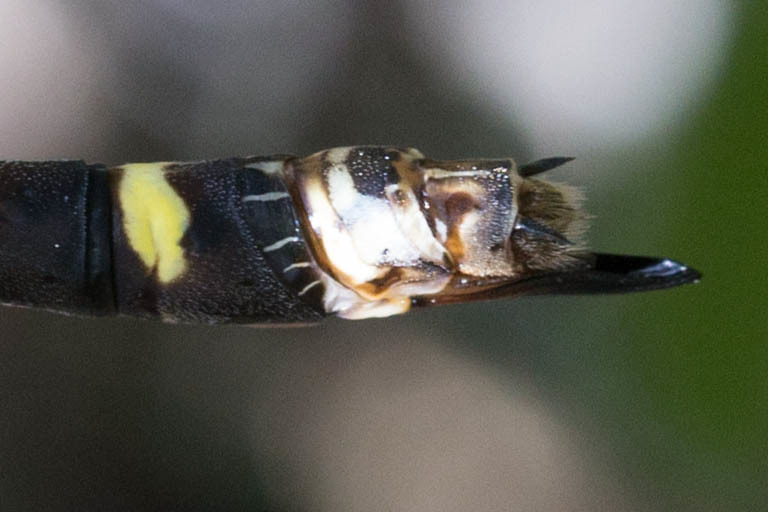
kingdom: Animalia
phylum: Arthropoda
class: Insecta
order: Odonata
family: Cordulegastridae
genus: Cordulegaster
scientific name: Cordulegaster dorsalis
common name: Pacific spiketail
